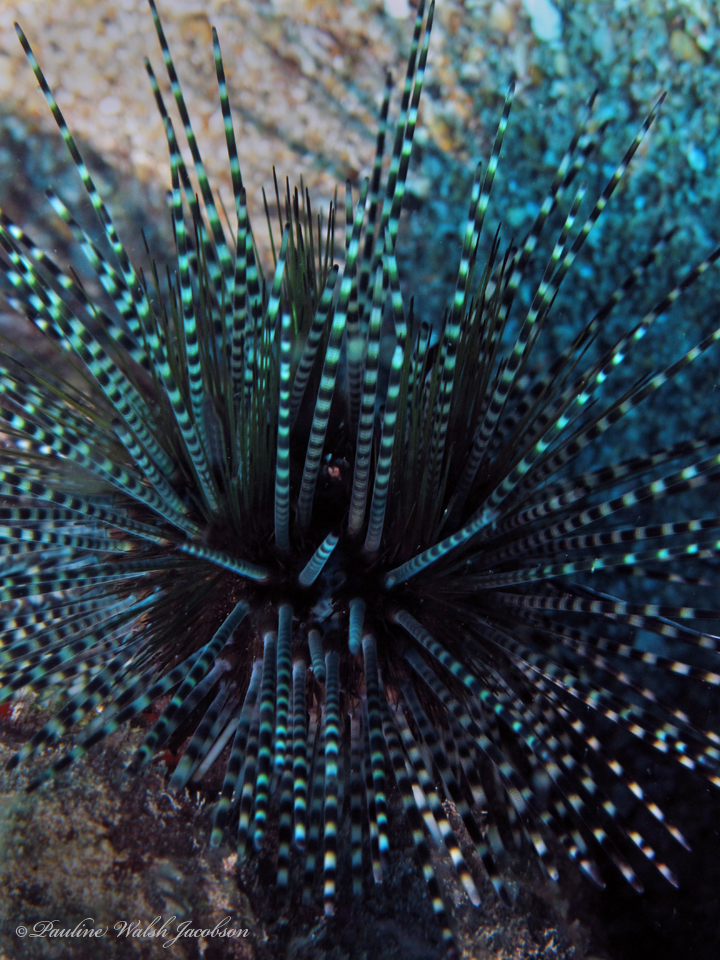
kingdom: Animalia
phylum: Echinodermata
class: Echinoidea
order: Diadematoida
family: Diadematidae
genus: Echinothrix
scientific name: Echinothrix calamaris
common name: Banded sea urchin
